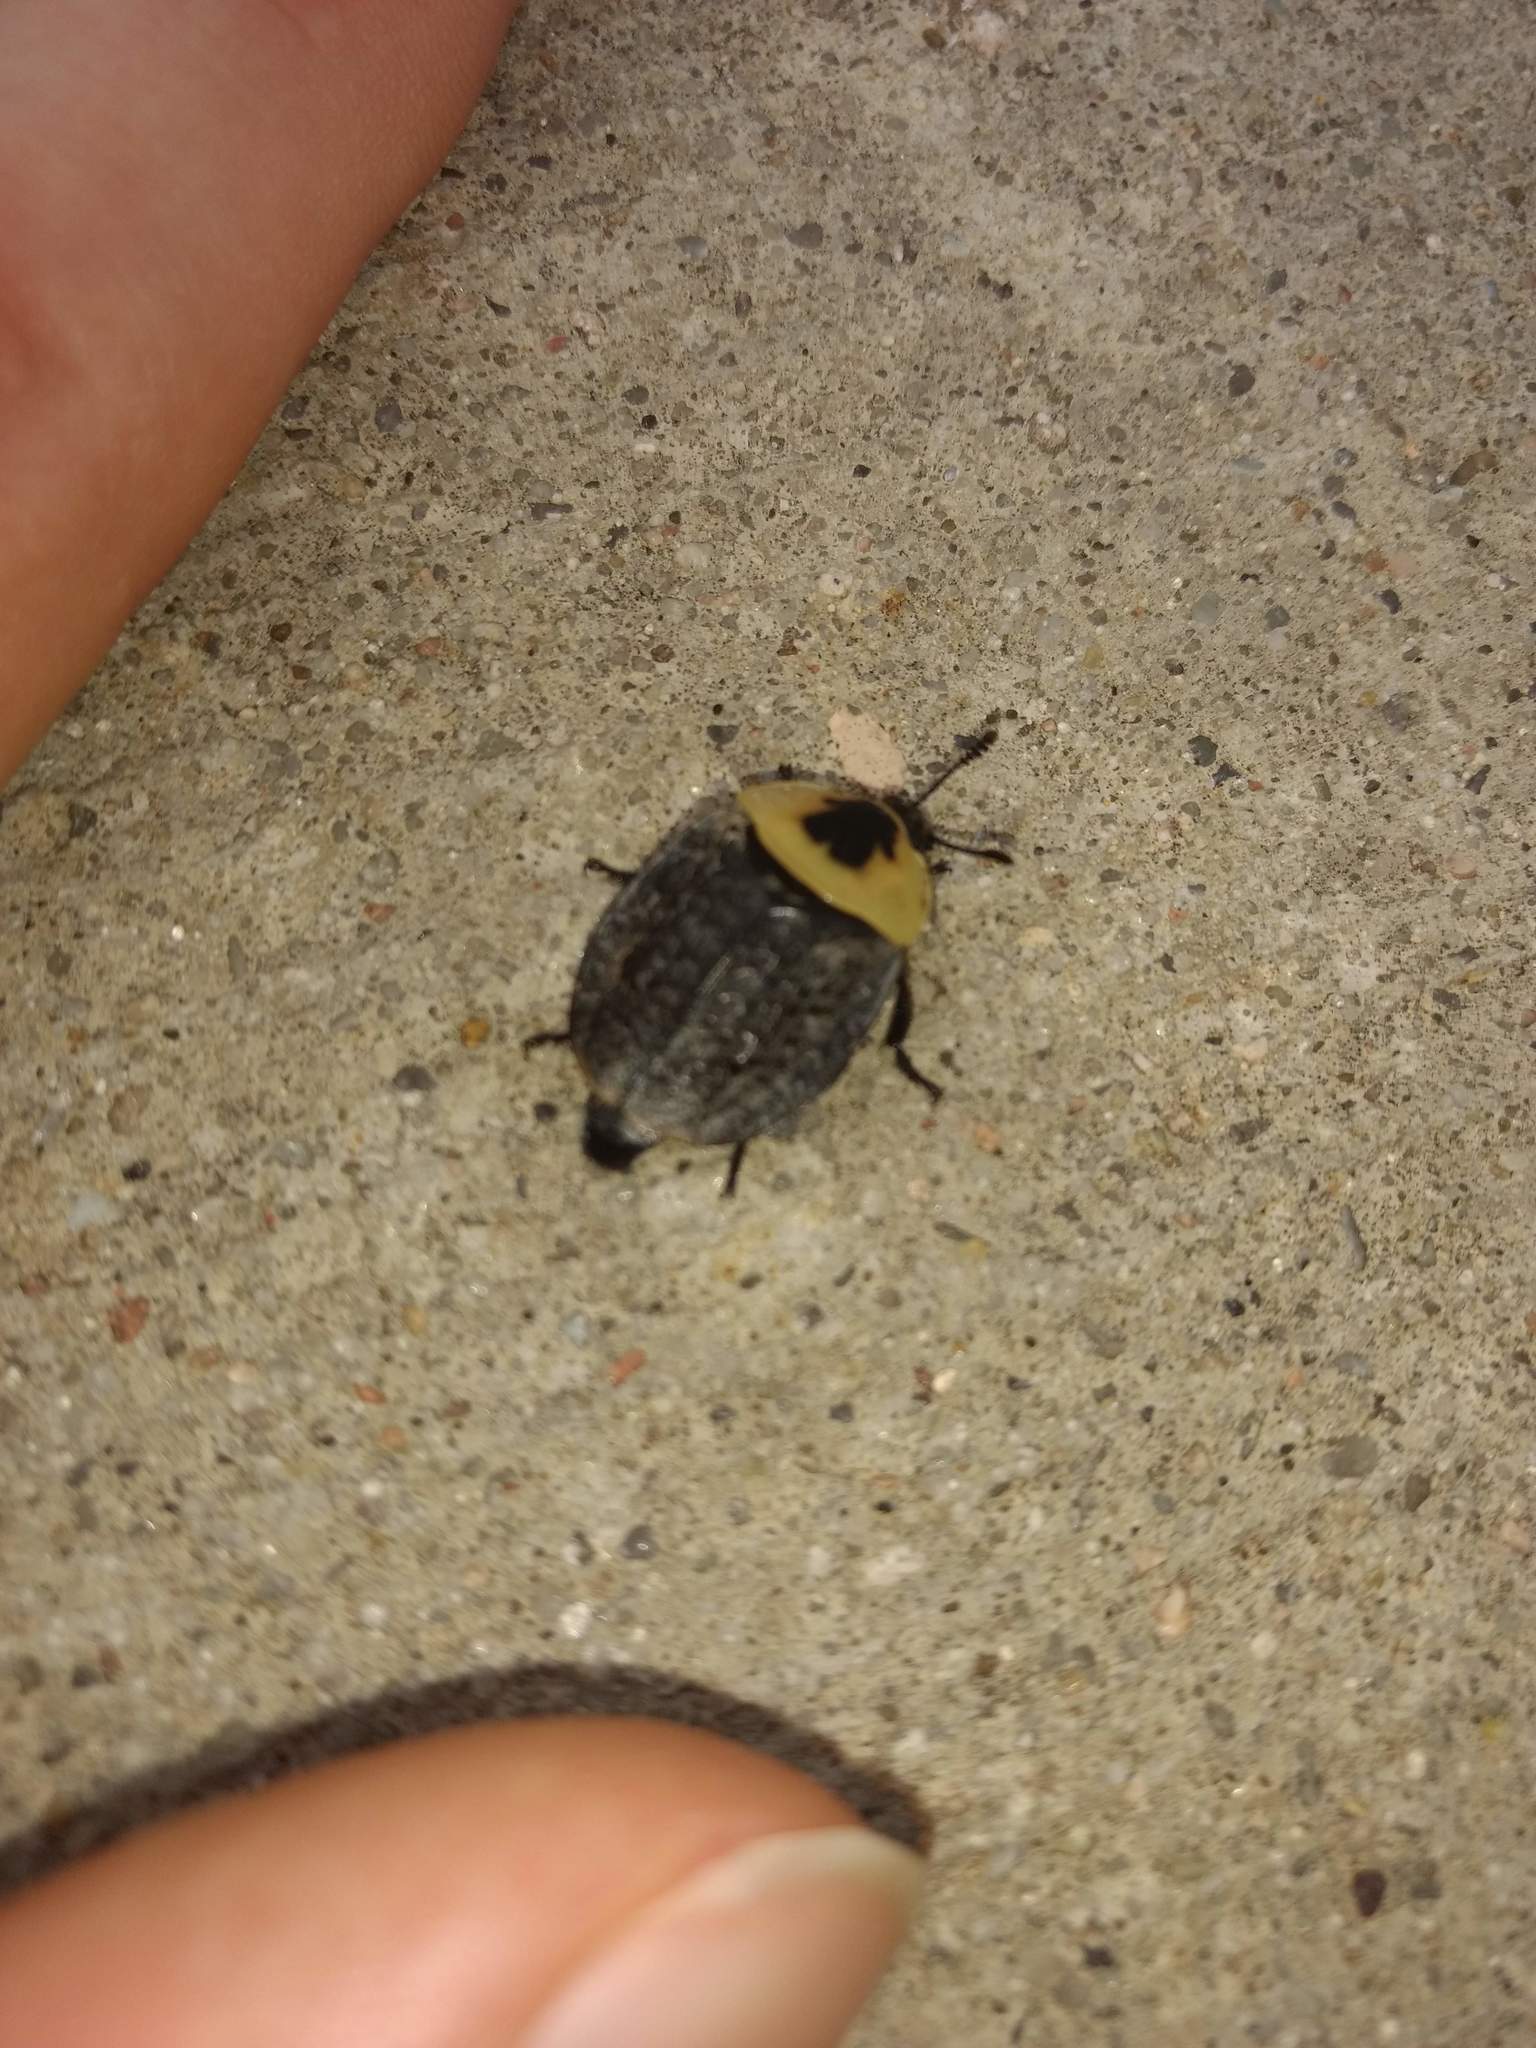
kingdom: Animalia
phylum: Arthropoda
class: Insecta
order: Coleoptera
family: Staphylinidae
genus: Necrophila
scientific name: Necrophila americana
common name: American carrion beetle
